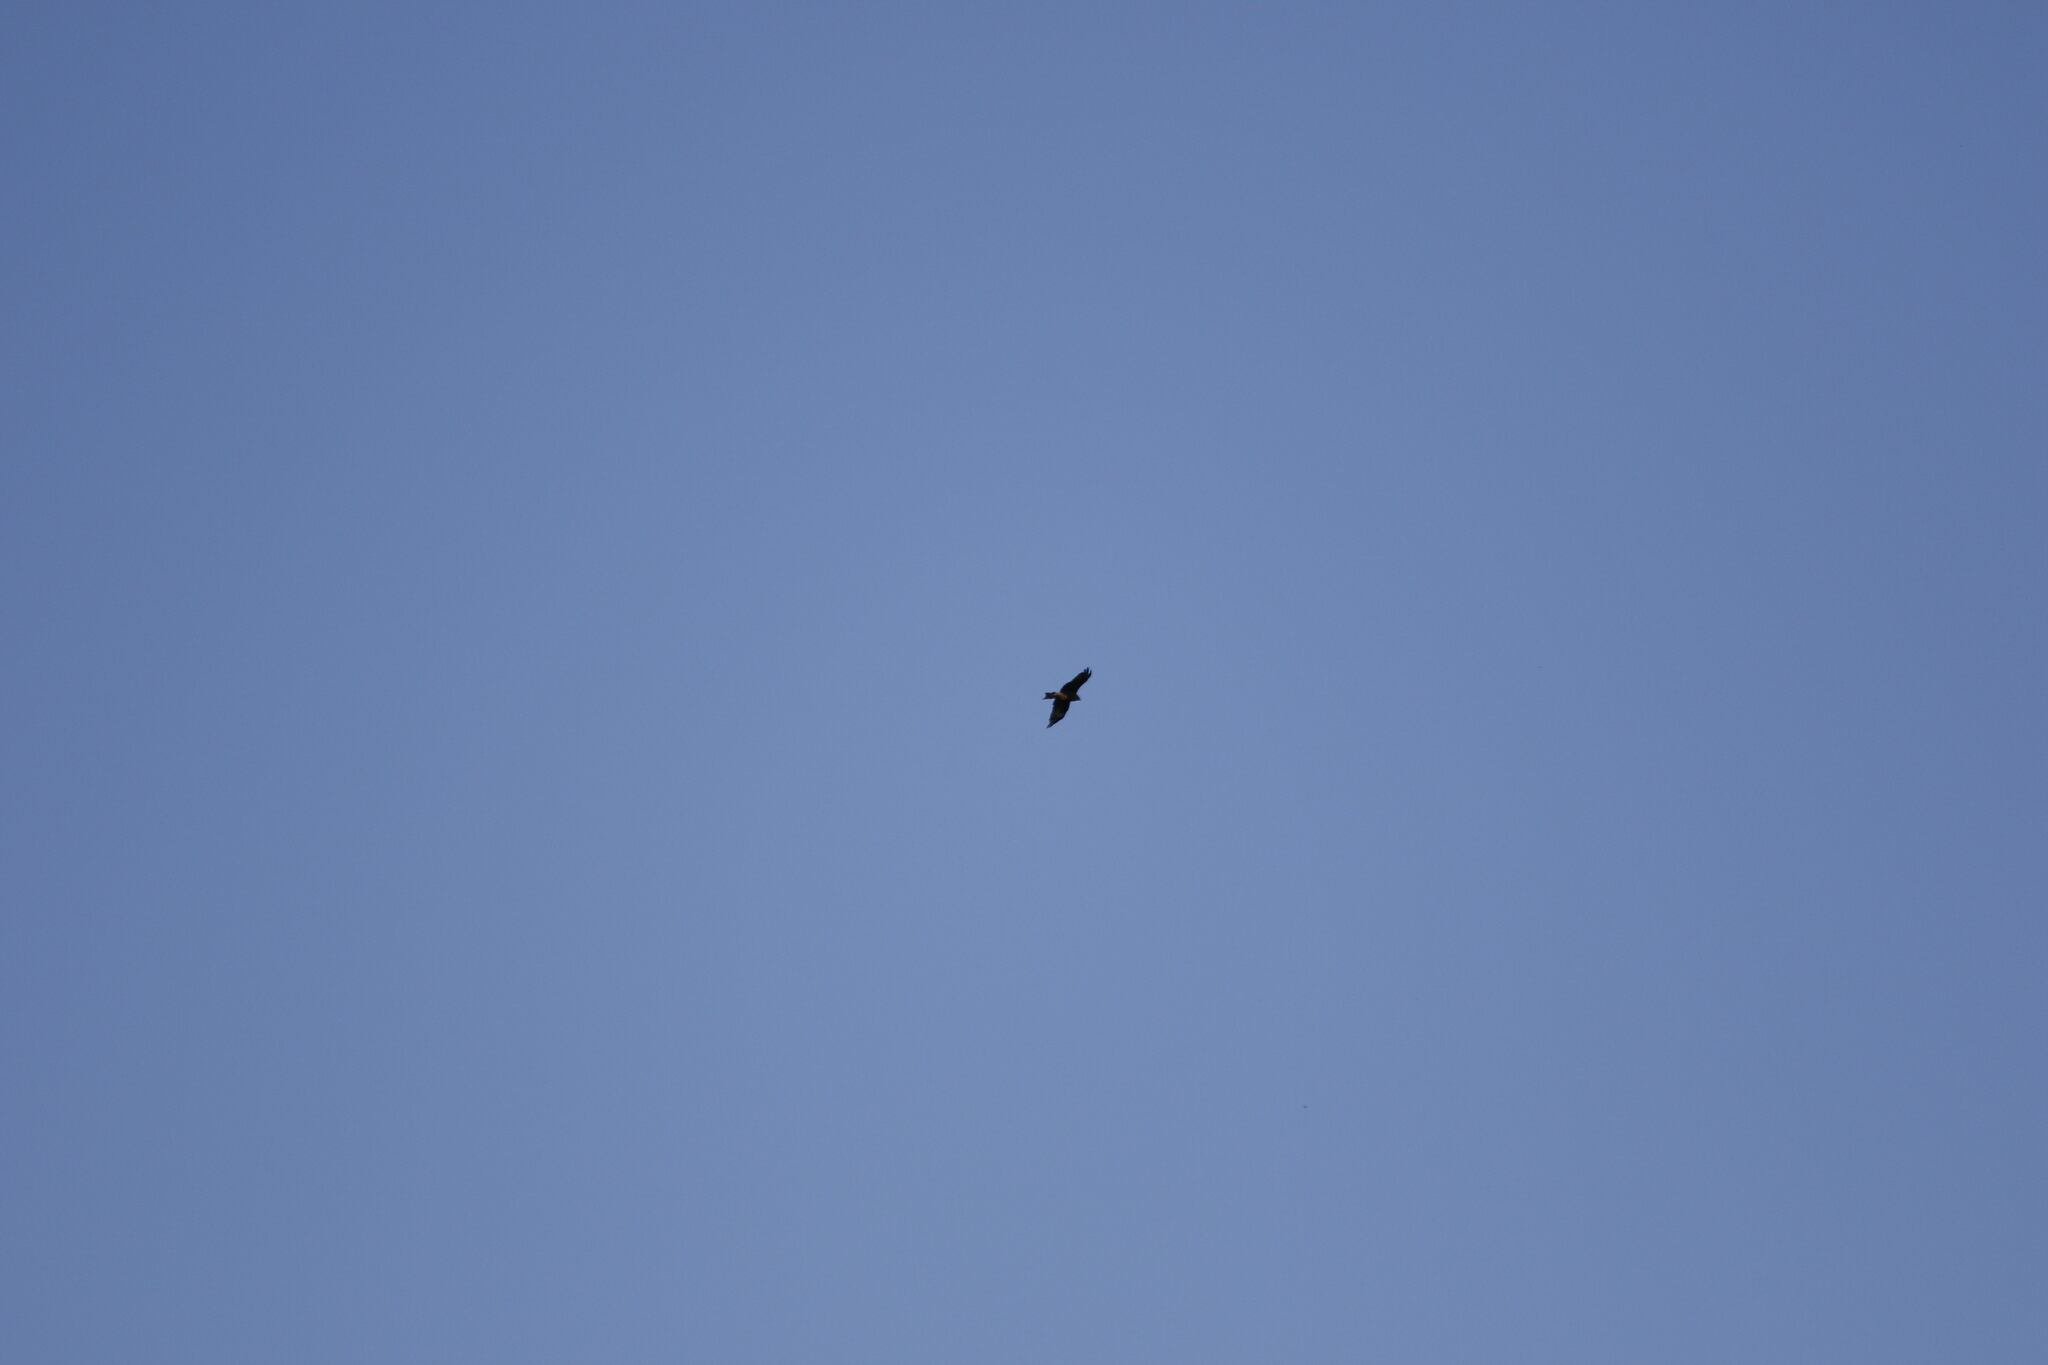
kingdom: Animalia
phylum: Chordata
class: Aves
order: Accipitriformes
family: Accipitridae
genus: Milvus
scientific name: Milvus migrans
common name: Black kite
